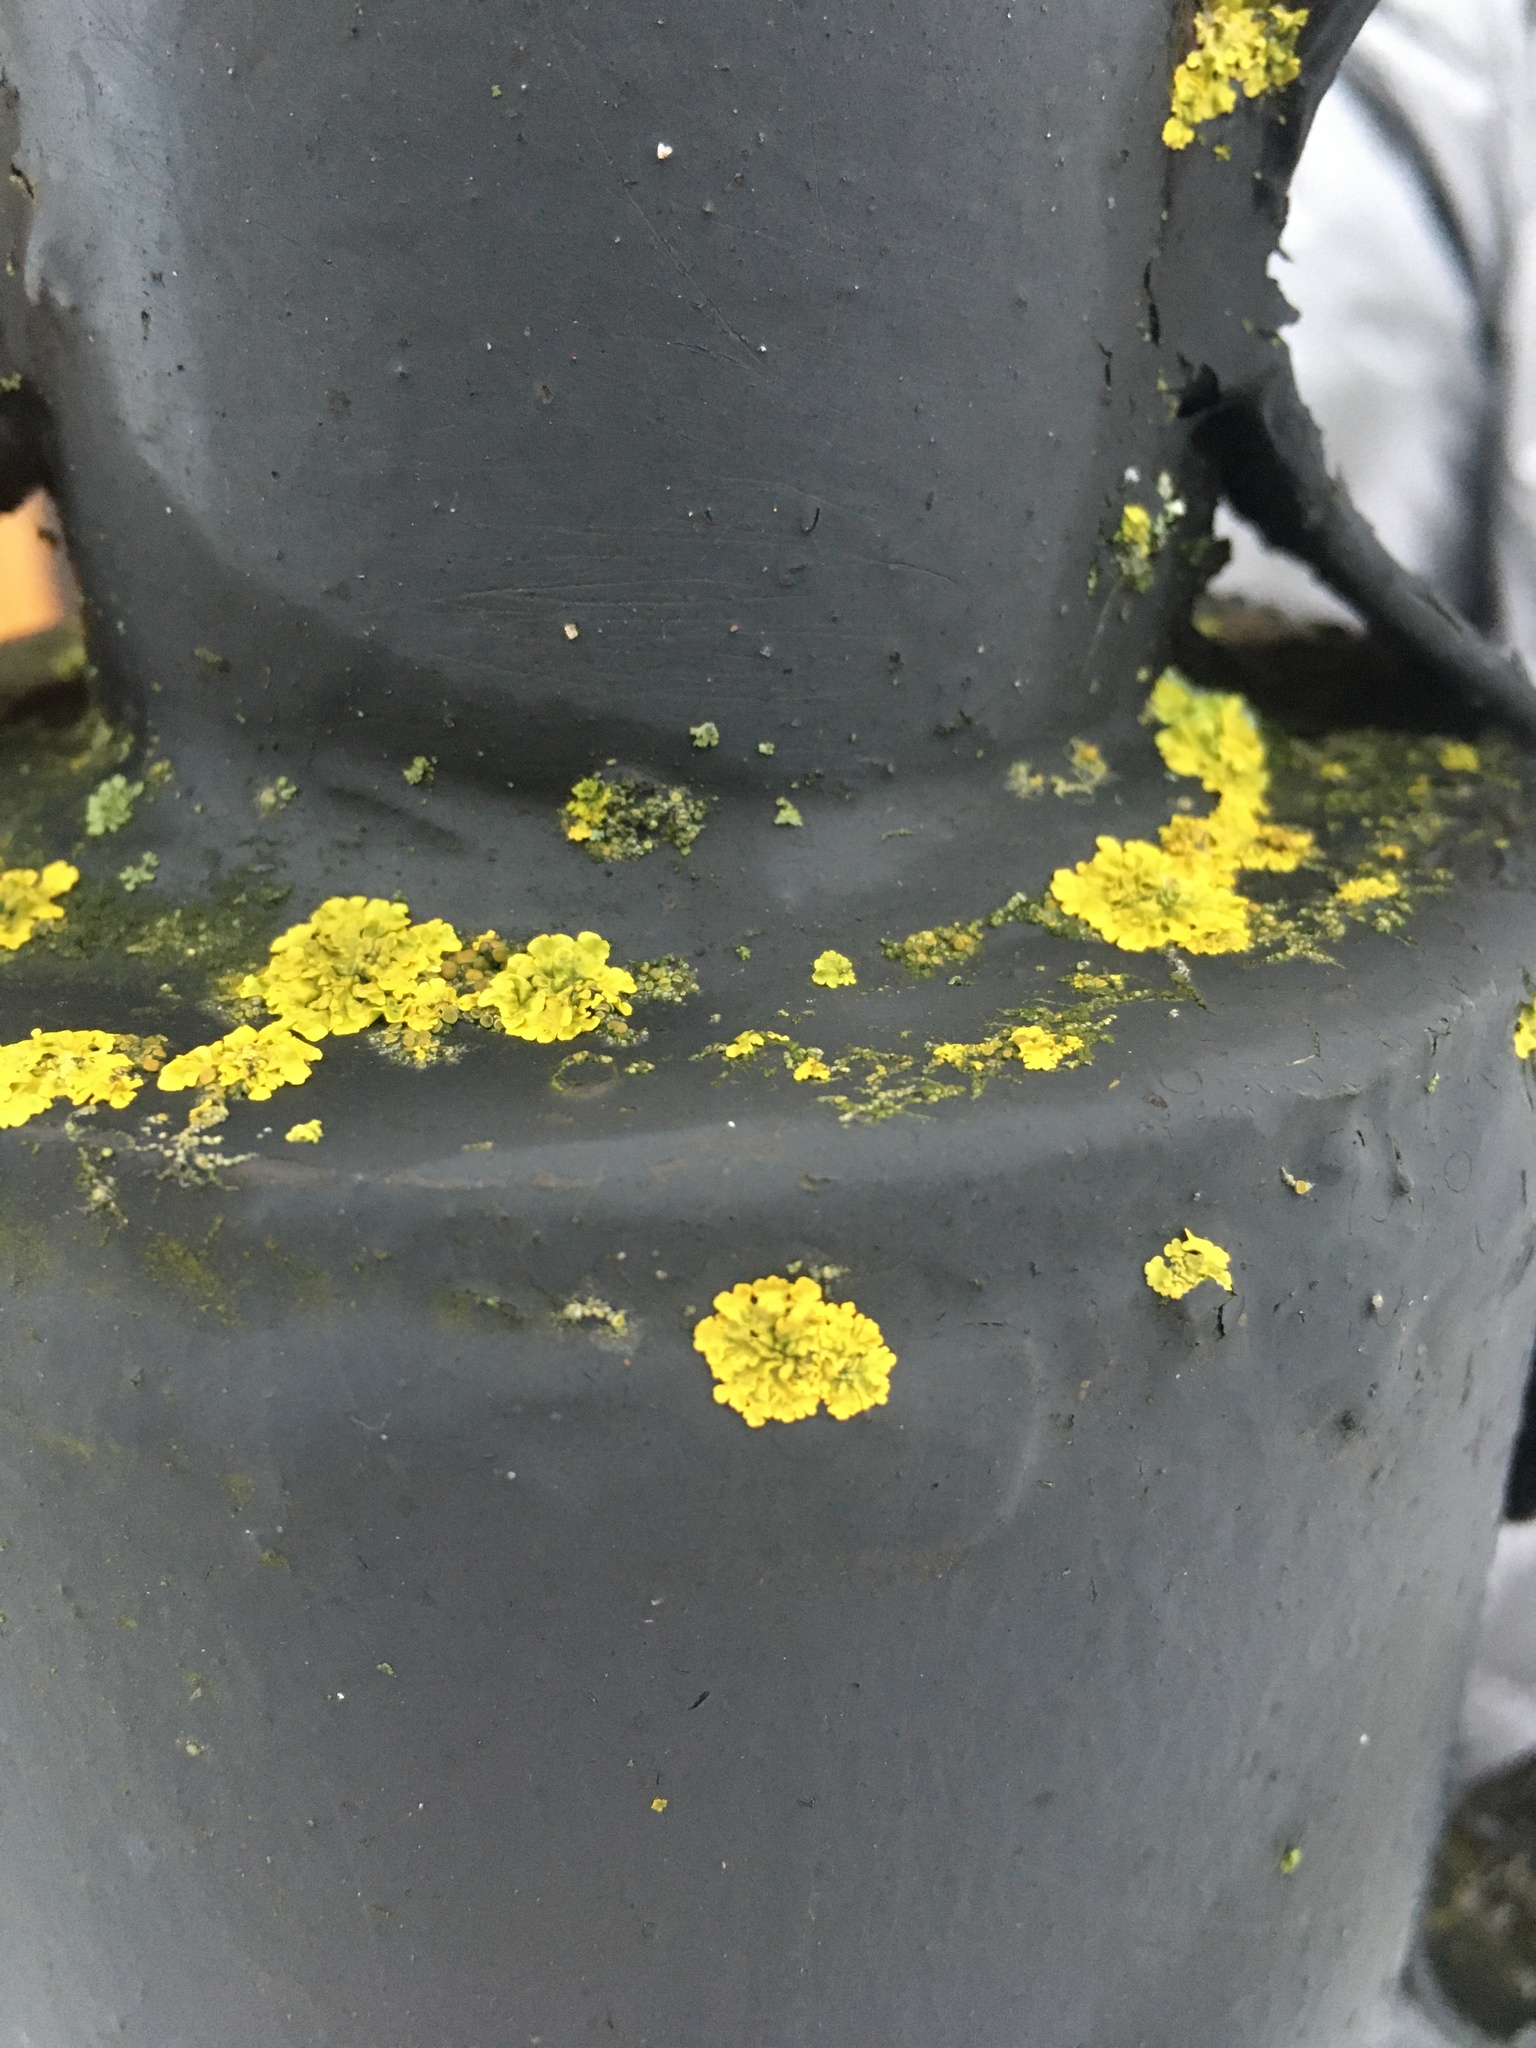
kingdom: Fungi
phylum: Ascomycota
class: Lecanoromycetes
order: Teloschistales
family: Teloschistaceae
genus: Xanthoria
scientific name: Xanthoria parietina
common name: Common orange lichen
